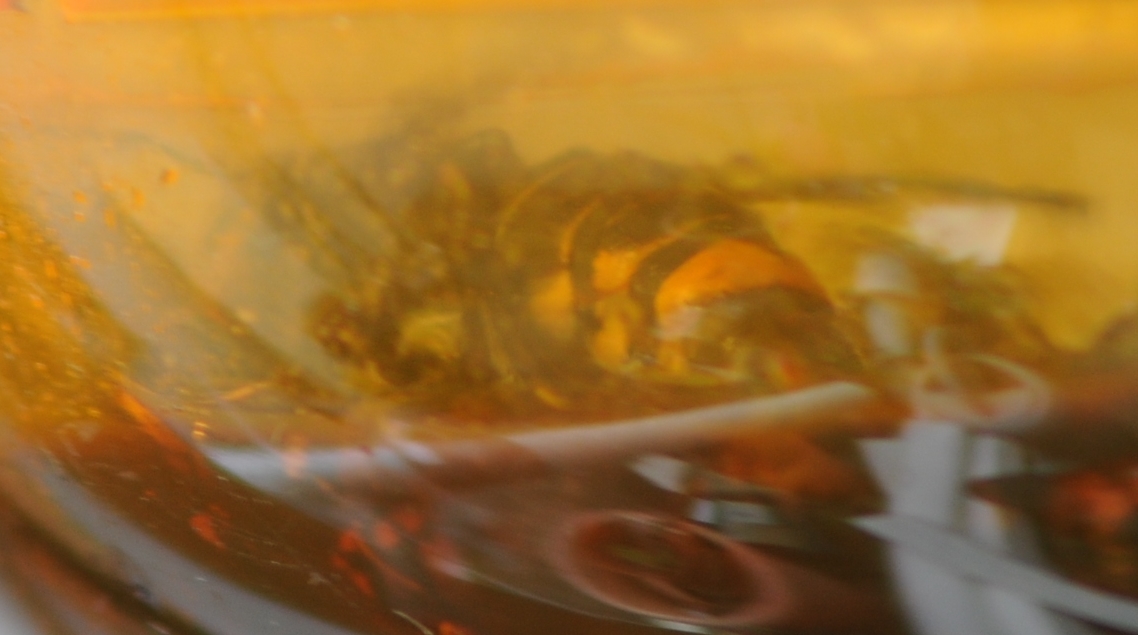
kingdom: Animalia
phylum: Arthropoda
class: Insecta
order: Hymenoptera
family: Vespidae
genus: Vespa
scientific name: Vespa velutina
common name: Asian hornet
